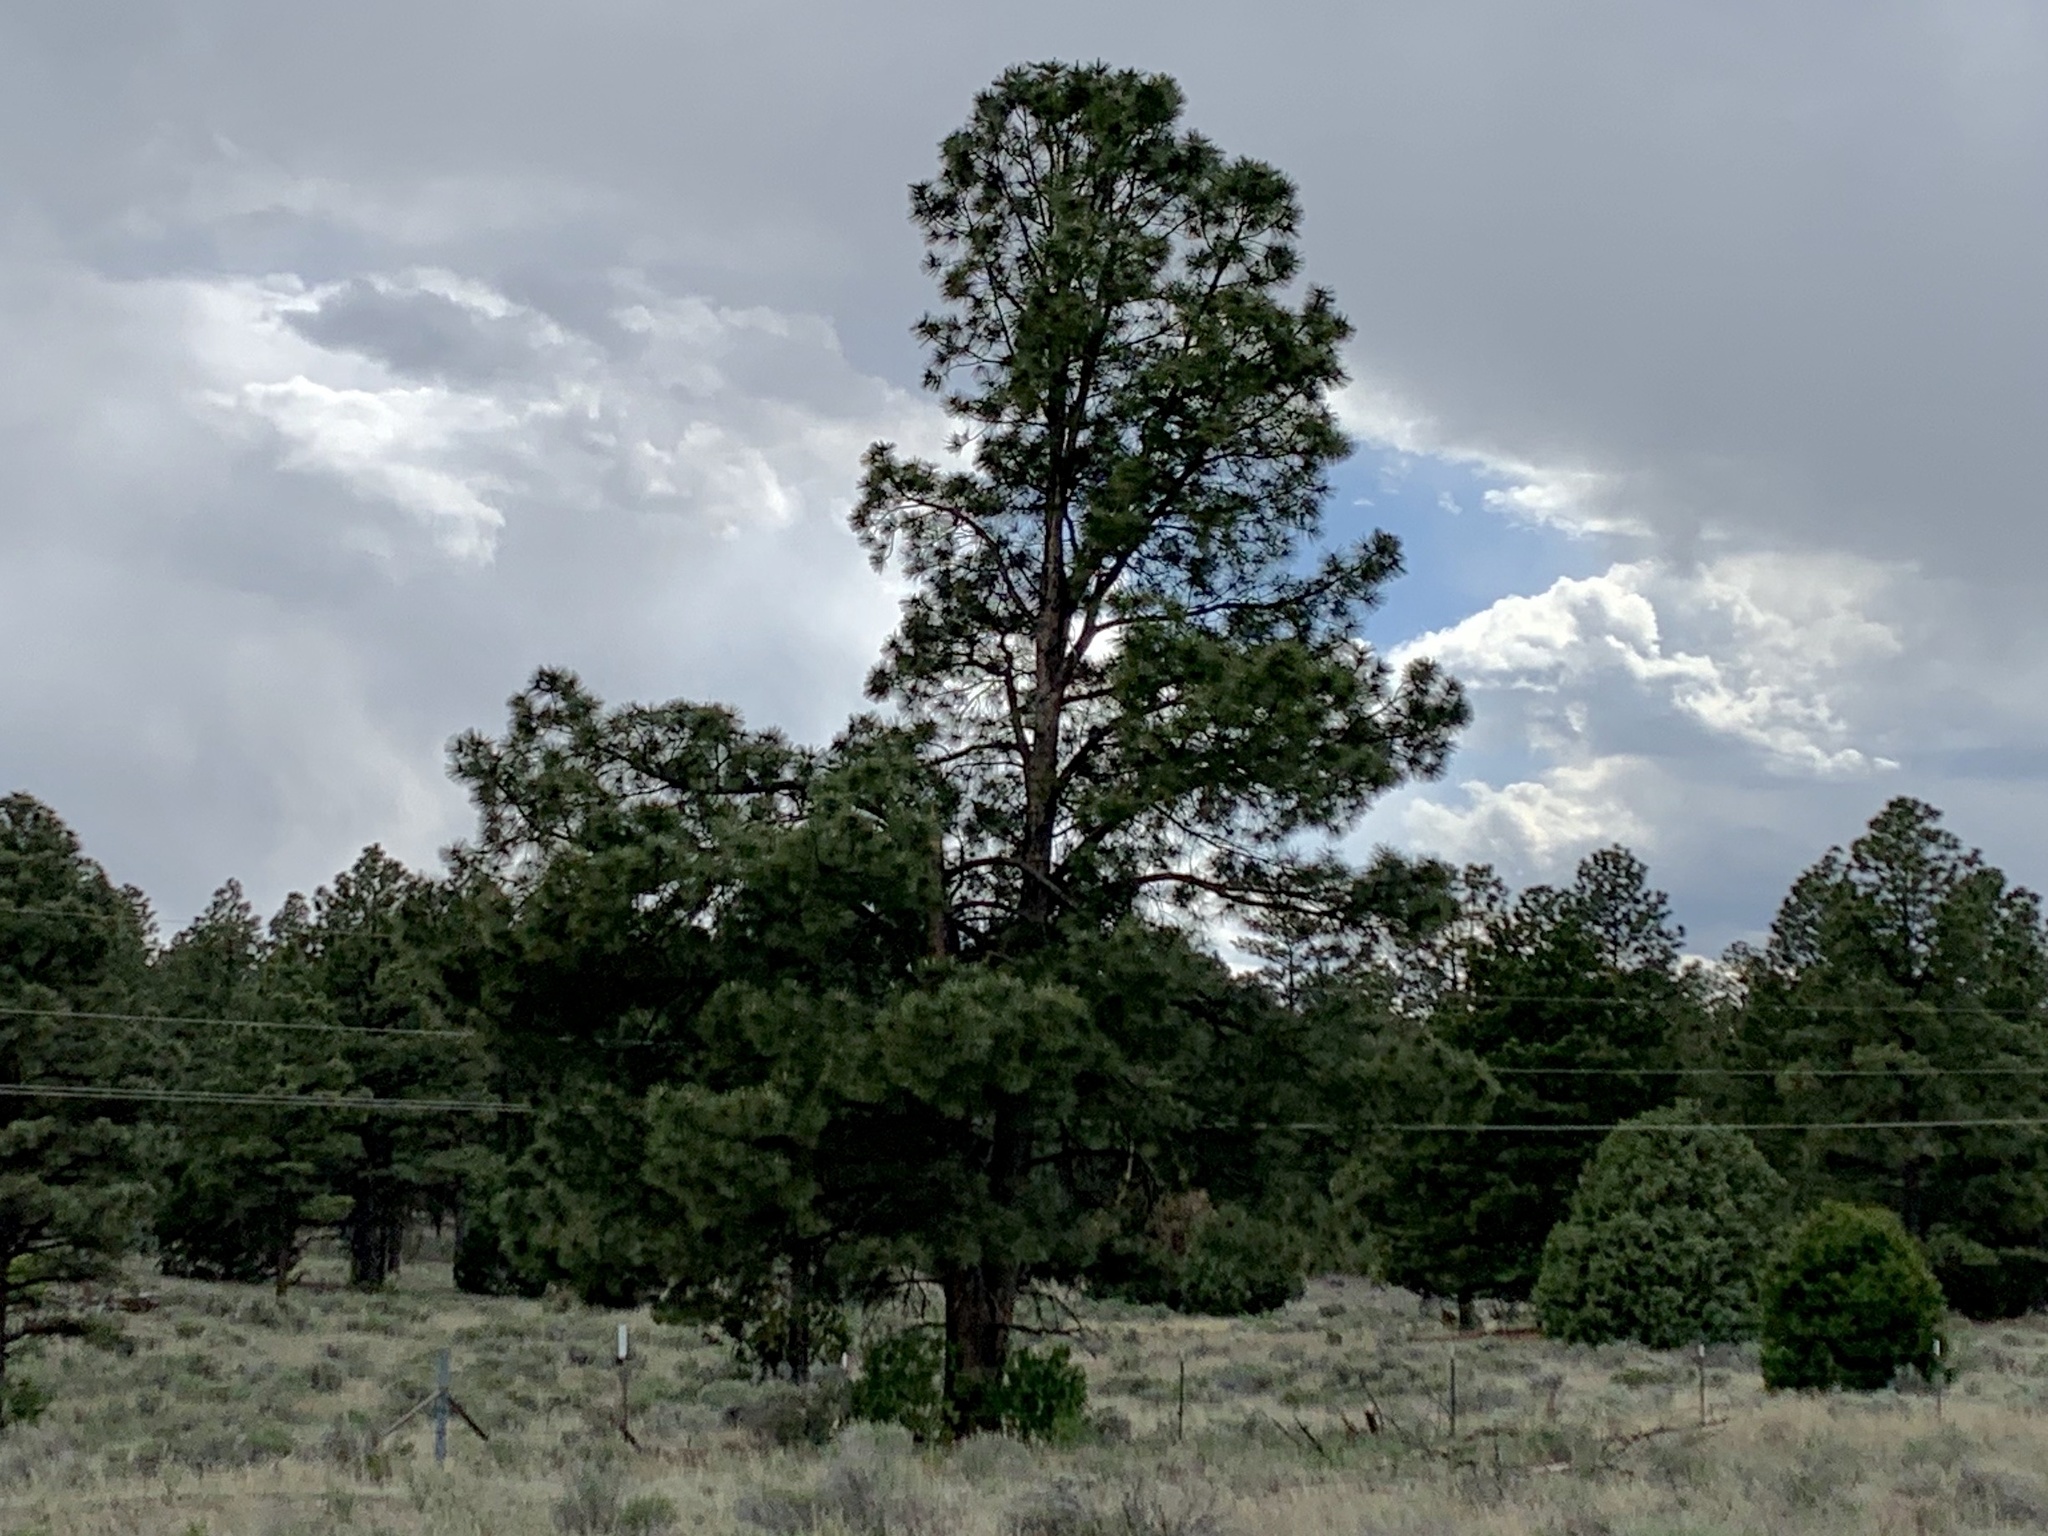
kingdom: Plantae
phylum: Tracheophyta
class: Pinopsida
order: Pinales
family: Pinaceae
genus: Pinus
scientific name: Pinus ponderosa
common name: Western yellow-pine
